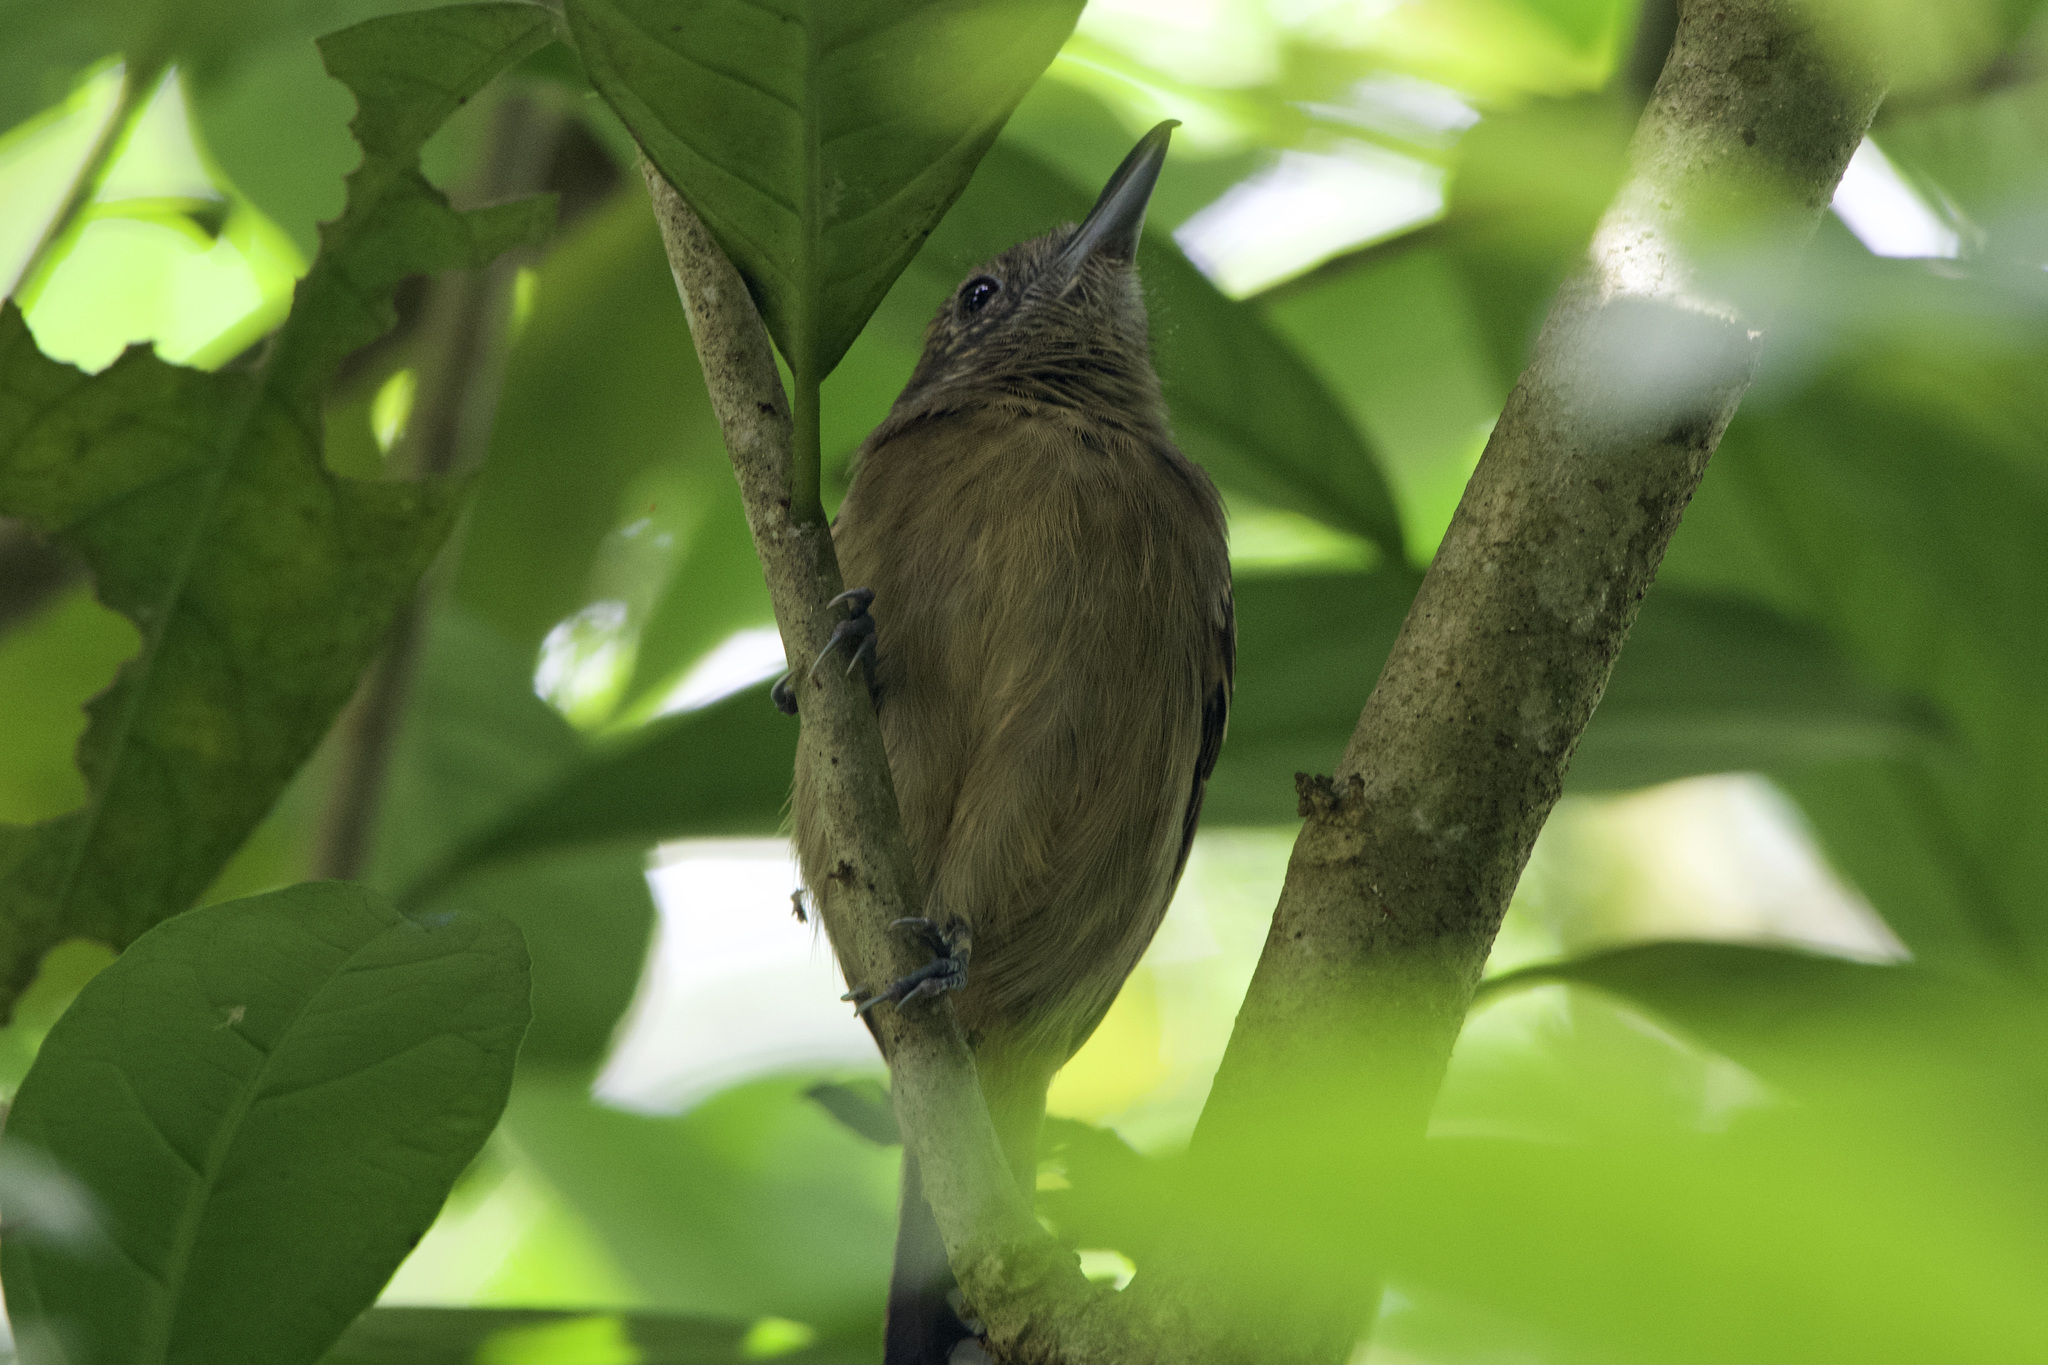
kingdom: Animalia
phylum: Chordata
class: Aves
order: Passeriformes
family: Thamnophilidae
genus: Thamnophilus
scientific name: Thamnophilus atrinucha
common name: Black-crowned antshrike
